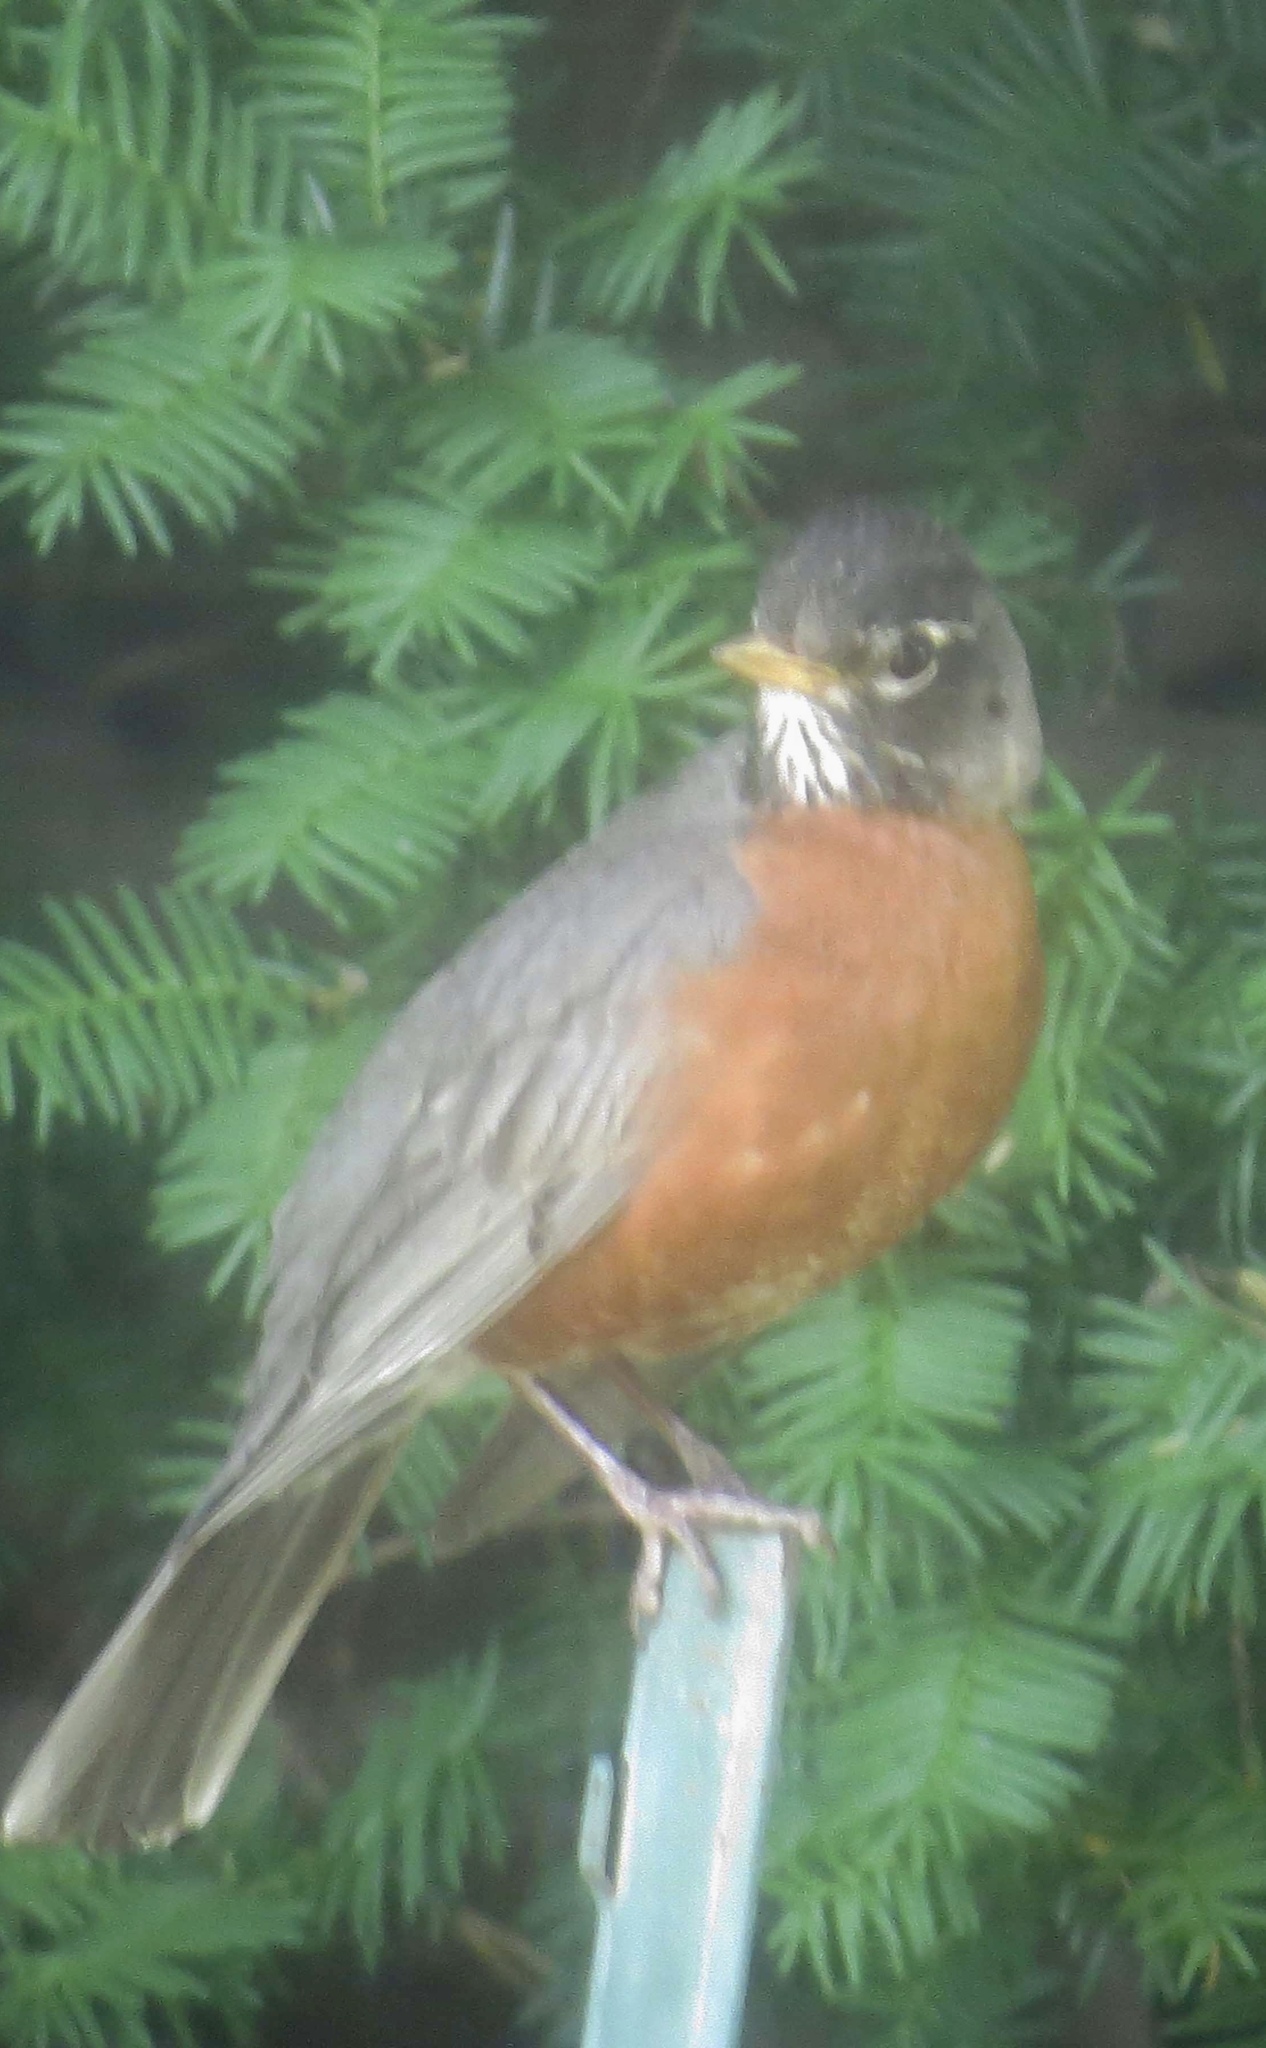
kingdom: Animalia
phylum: Chordata
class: Aves
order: Passeriformes
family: Turdidae
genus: Turdus
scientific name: Turdus migratorius
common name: American robin
